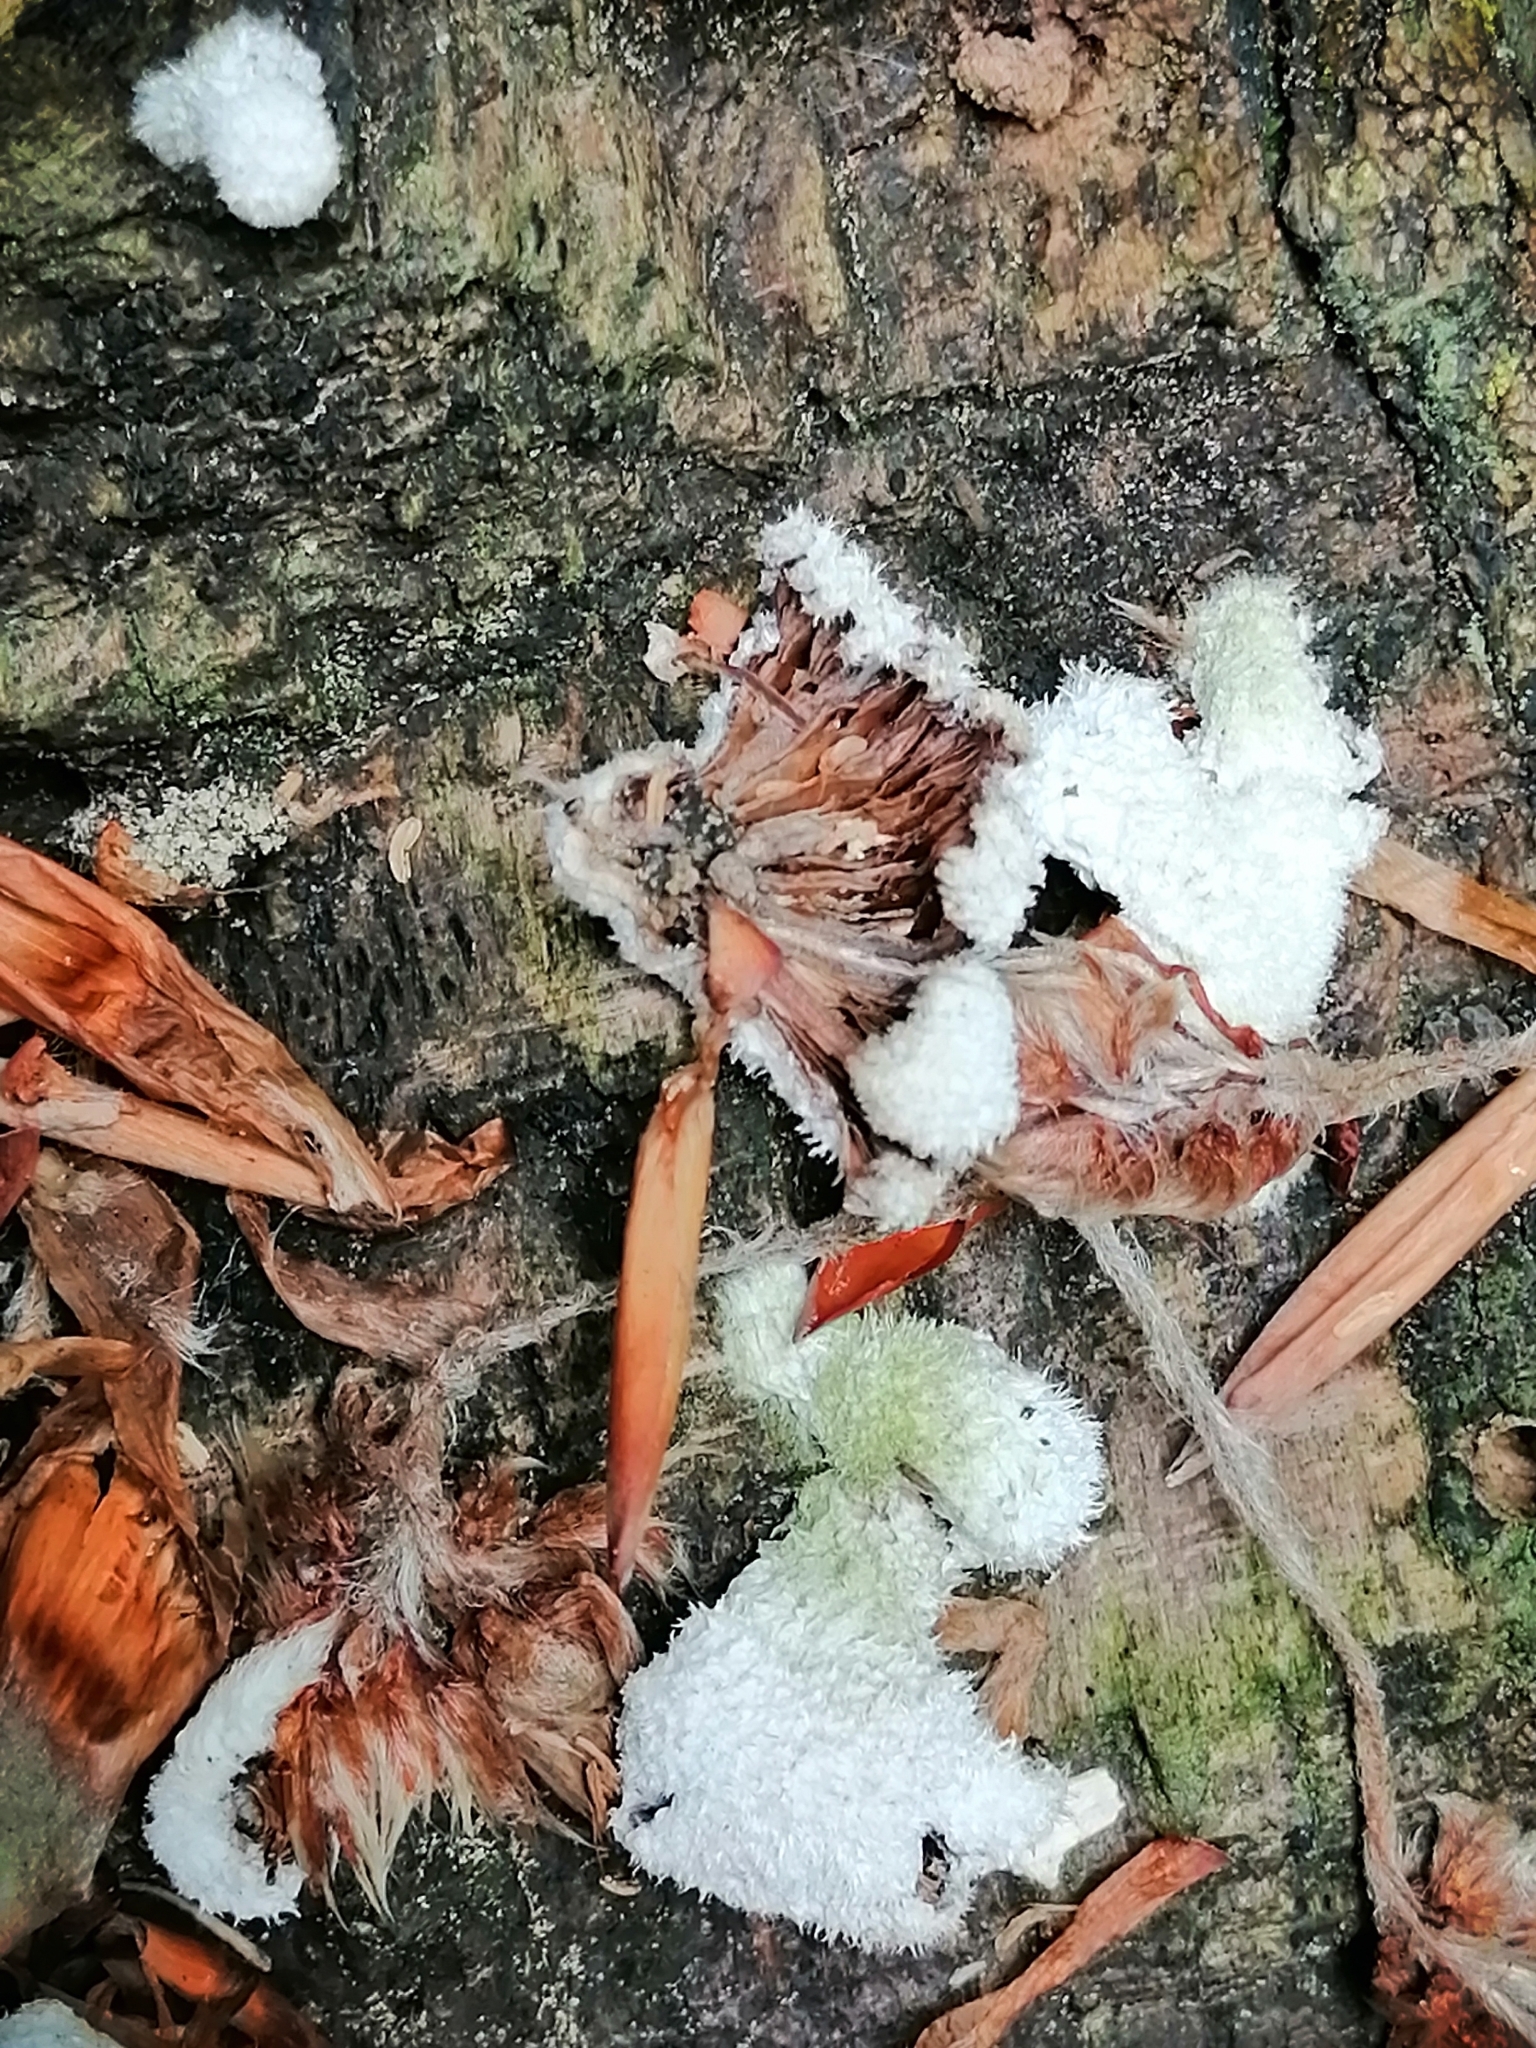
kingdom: Fungi
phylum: Basidiomycota
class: Agaricomycetes
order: Agaricales
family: Schizophyllaceae
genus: Schizophyllum
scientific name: Schizophyllum commune
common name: Common porecrust
